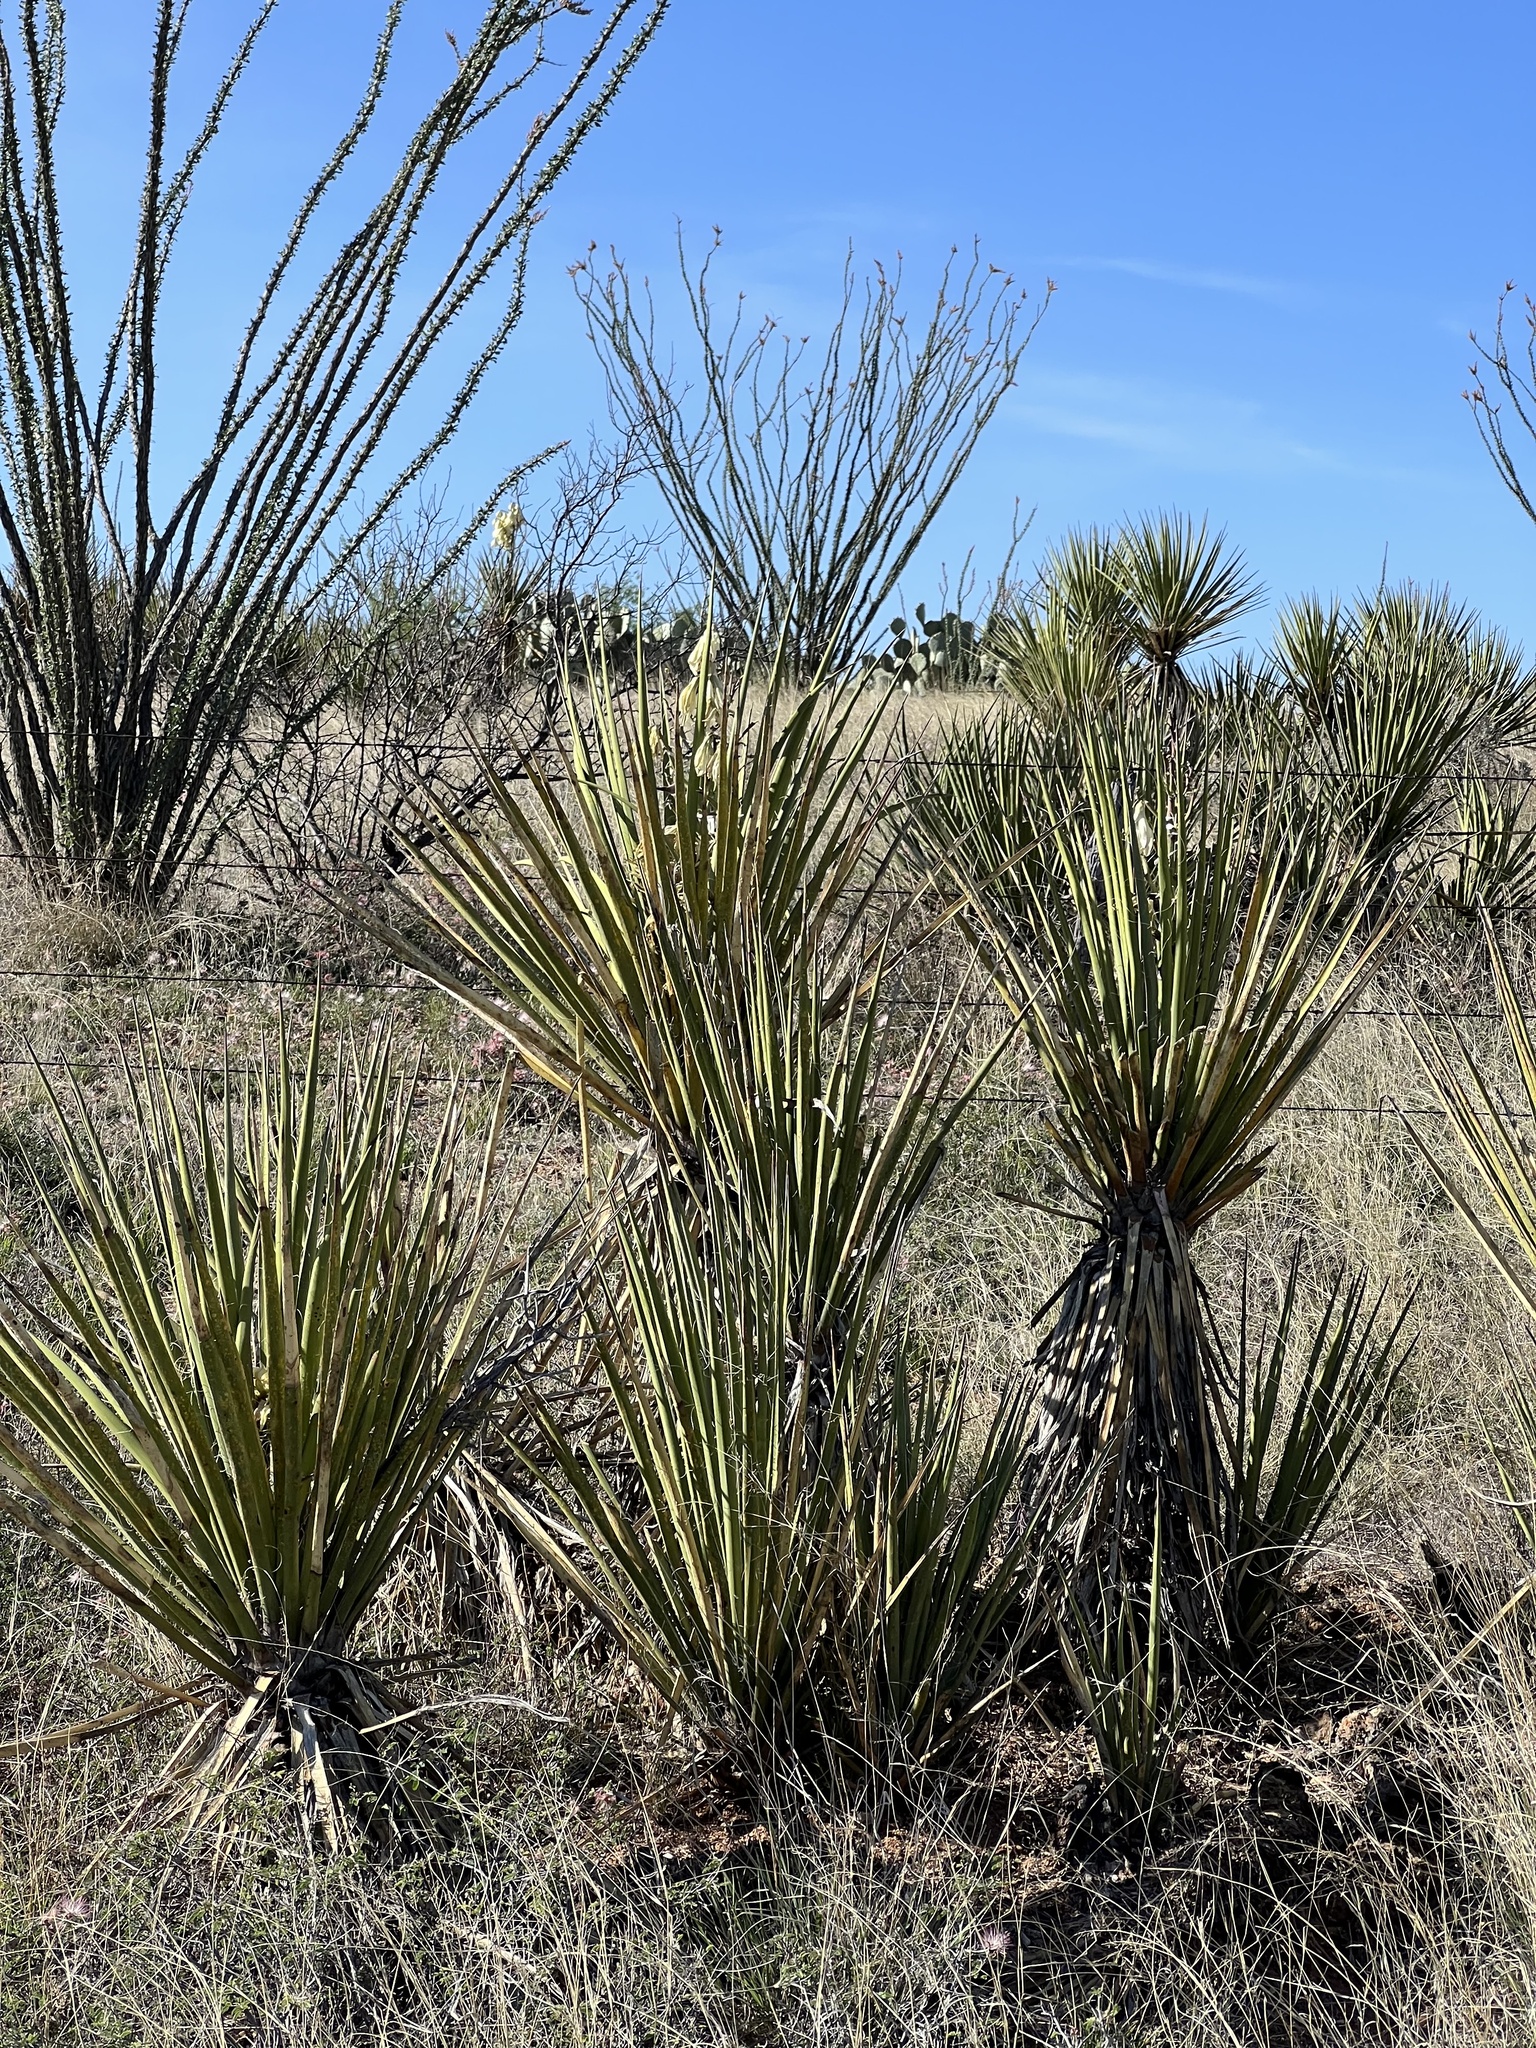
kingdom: Plantae
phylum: Tracheophyta
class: Liliopsida
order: Asparagales
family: Asparagaceae
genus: Yucca
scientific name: Yucca baccata
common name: Banana yucca
